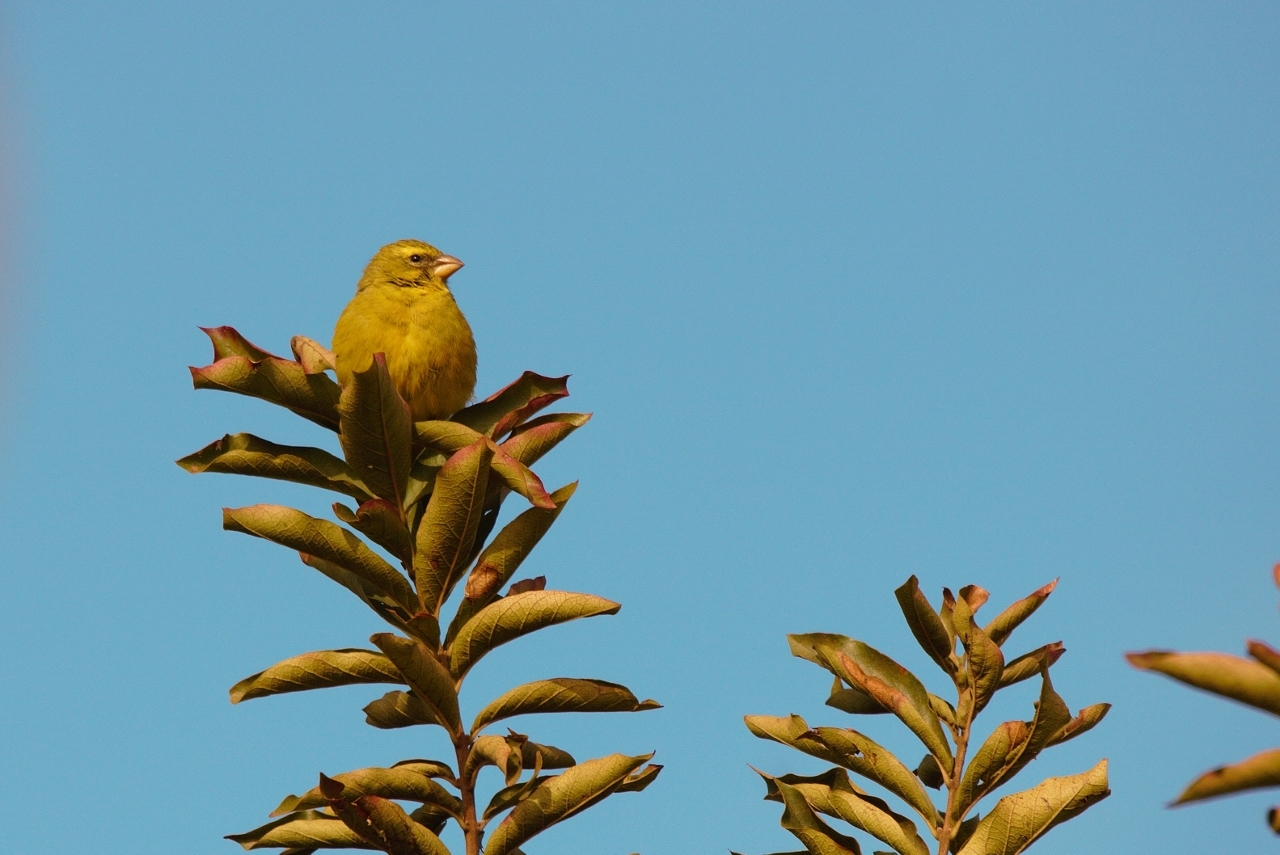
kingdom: Animalia
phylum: Chordata
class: Aves
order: Passeriformes
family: Fringillidae
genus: Crithagra
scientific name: Crithagra sulphurata
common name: Brimstone canary
